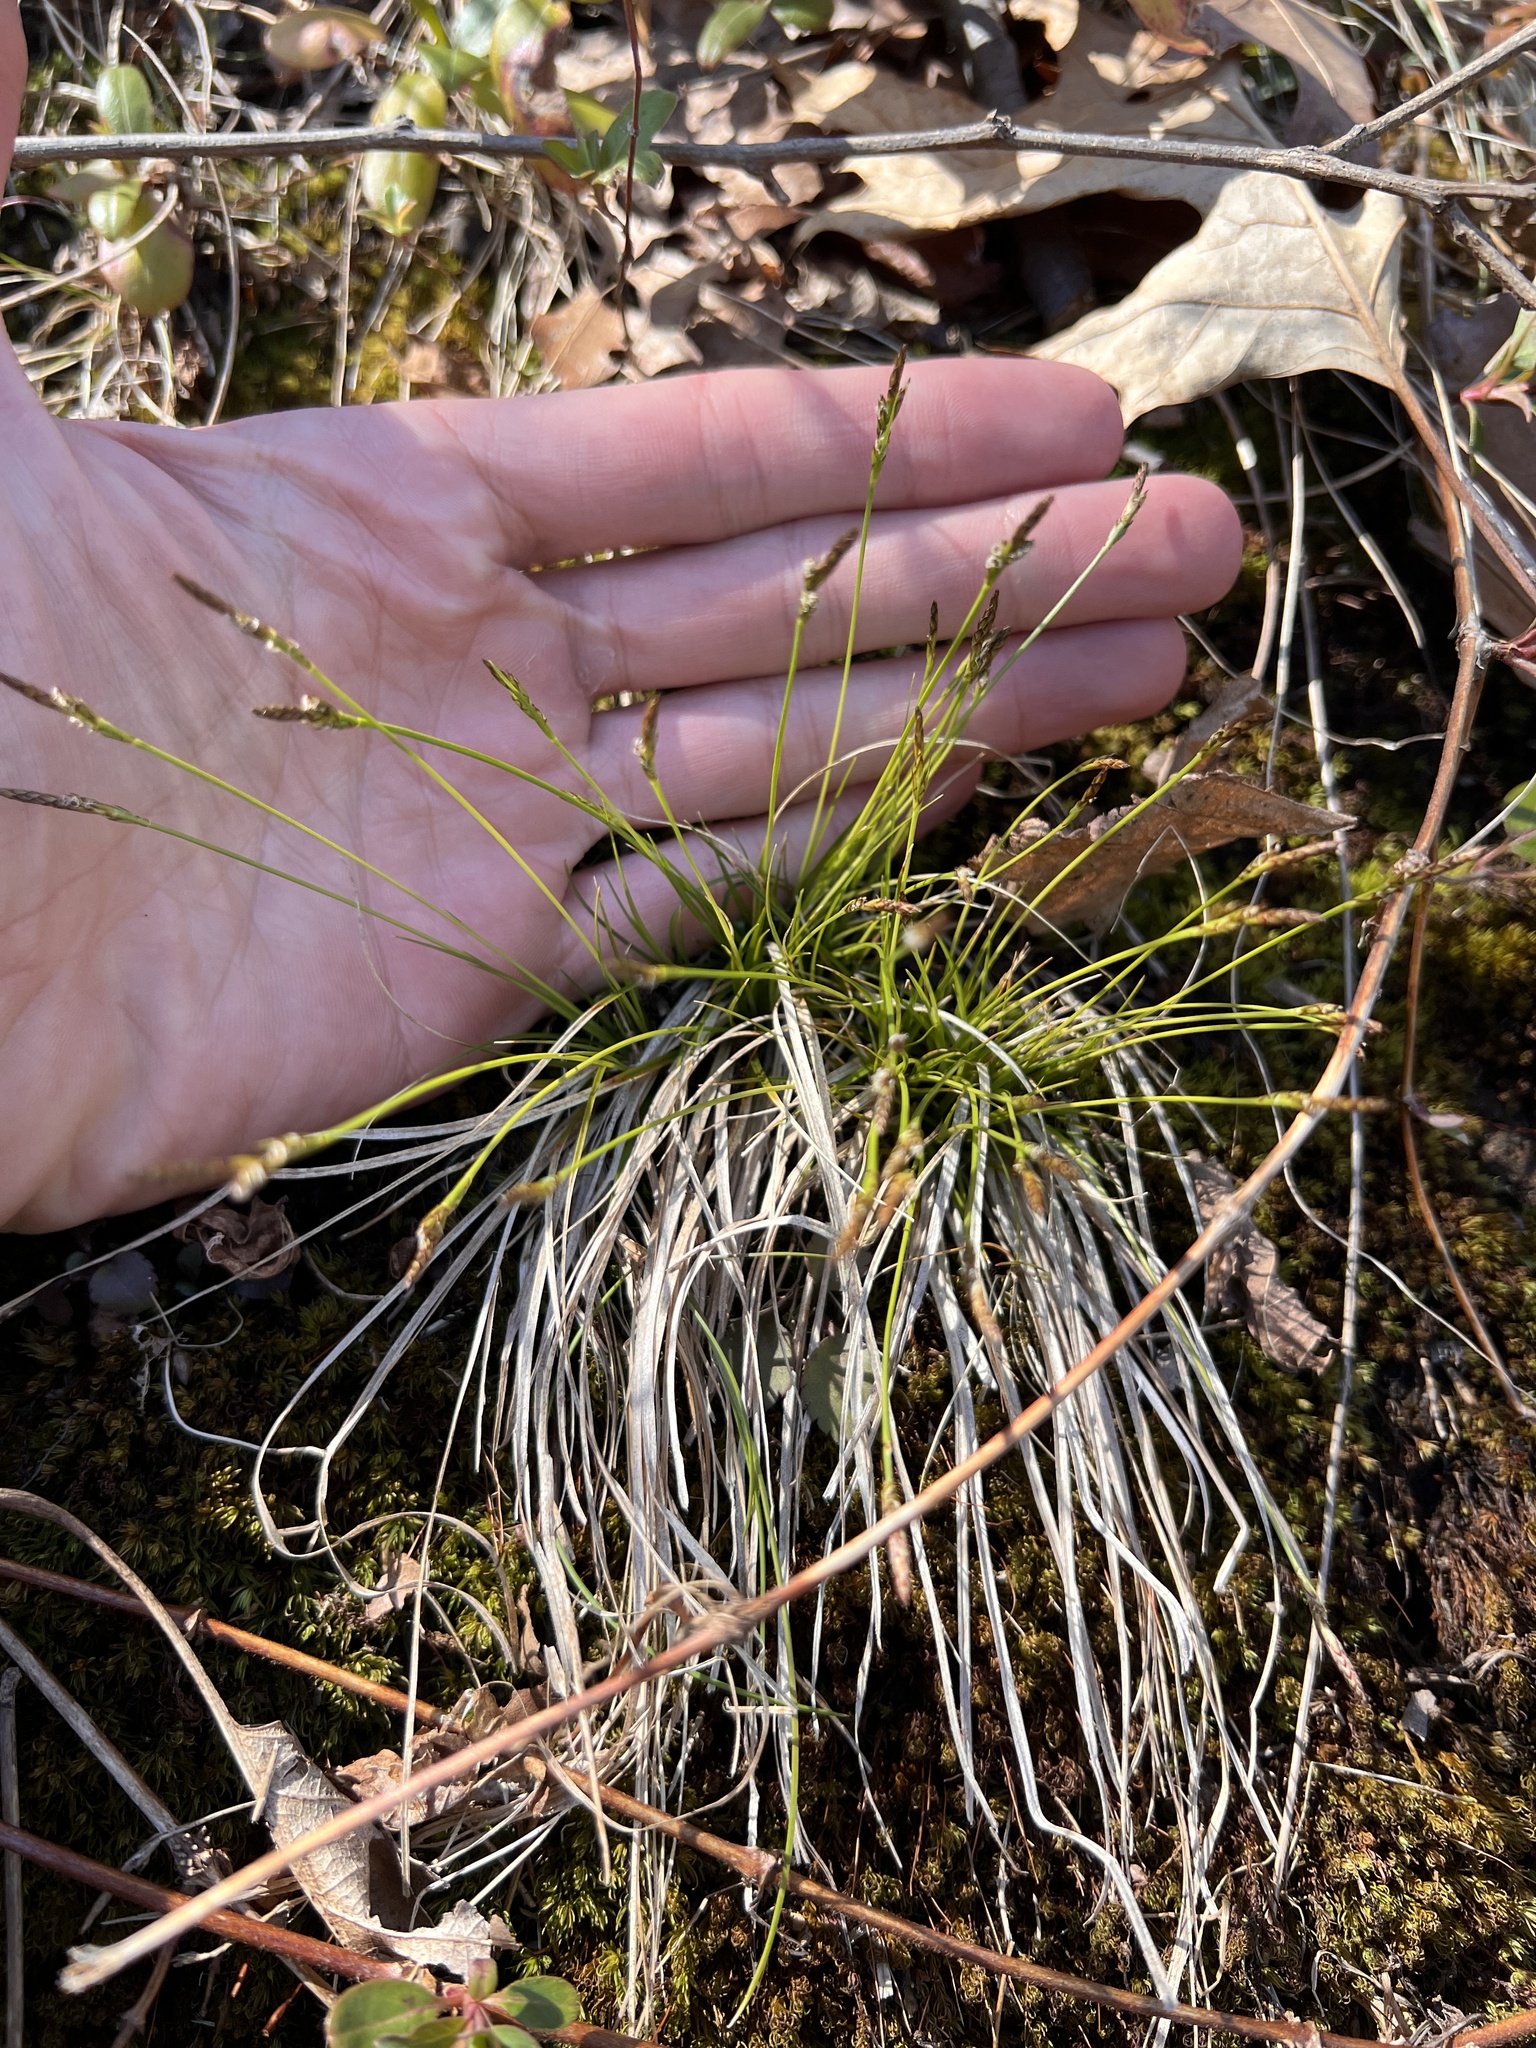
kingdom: Plantae
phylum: Tracheophyta
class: Liliopsida
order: Poales
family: Cyperaceae
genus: Carex
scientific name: Carex albicans
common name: Bellow-beaked sedge
